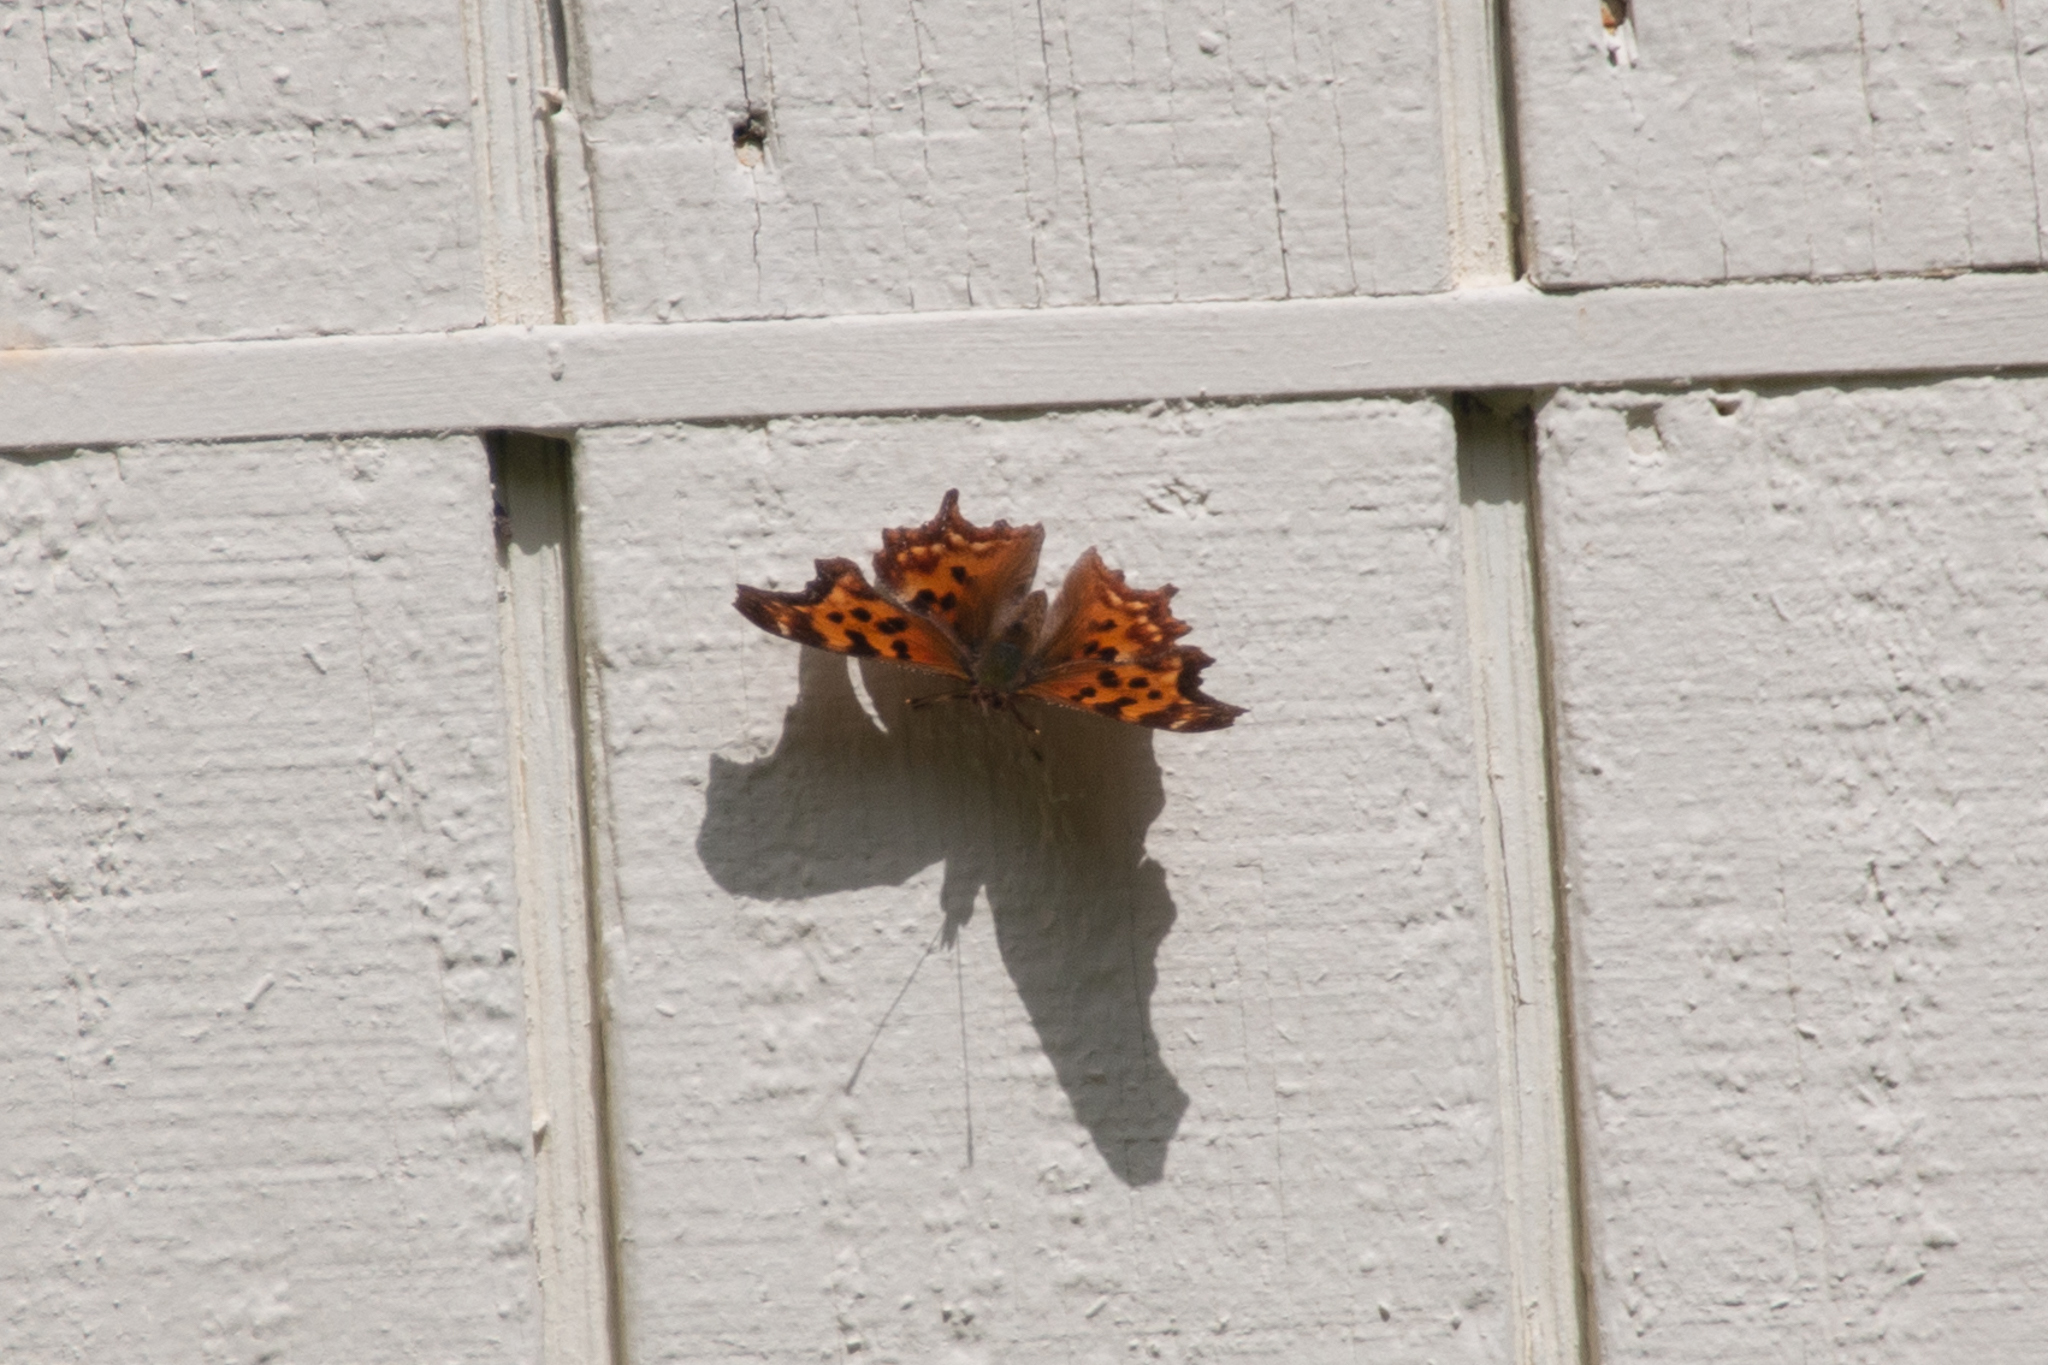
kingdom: Animalia
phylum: Arthropoda
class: Insecta
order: Lepidoptera
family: Nymphalidae
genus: Polygonia
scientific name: Polygonia satyrus
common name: Satyr angle wing
